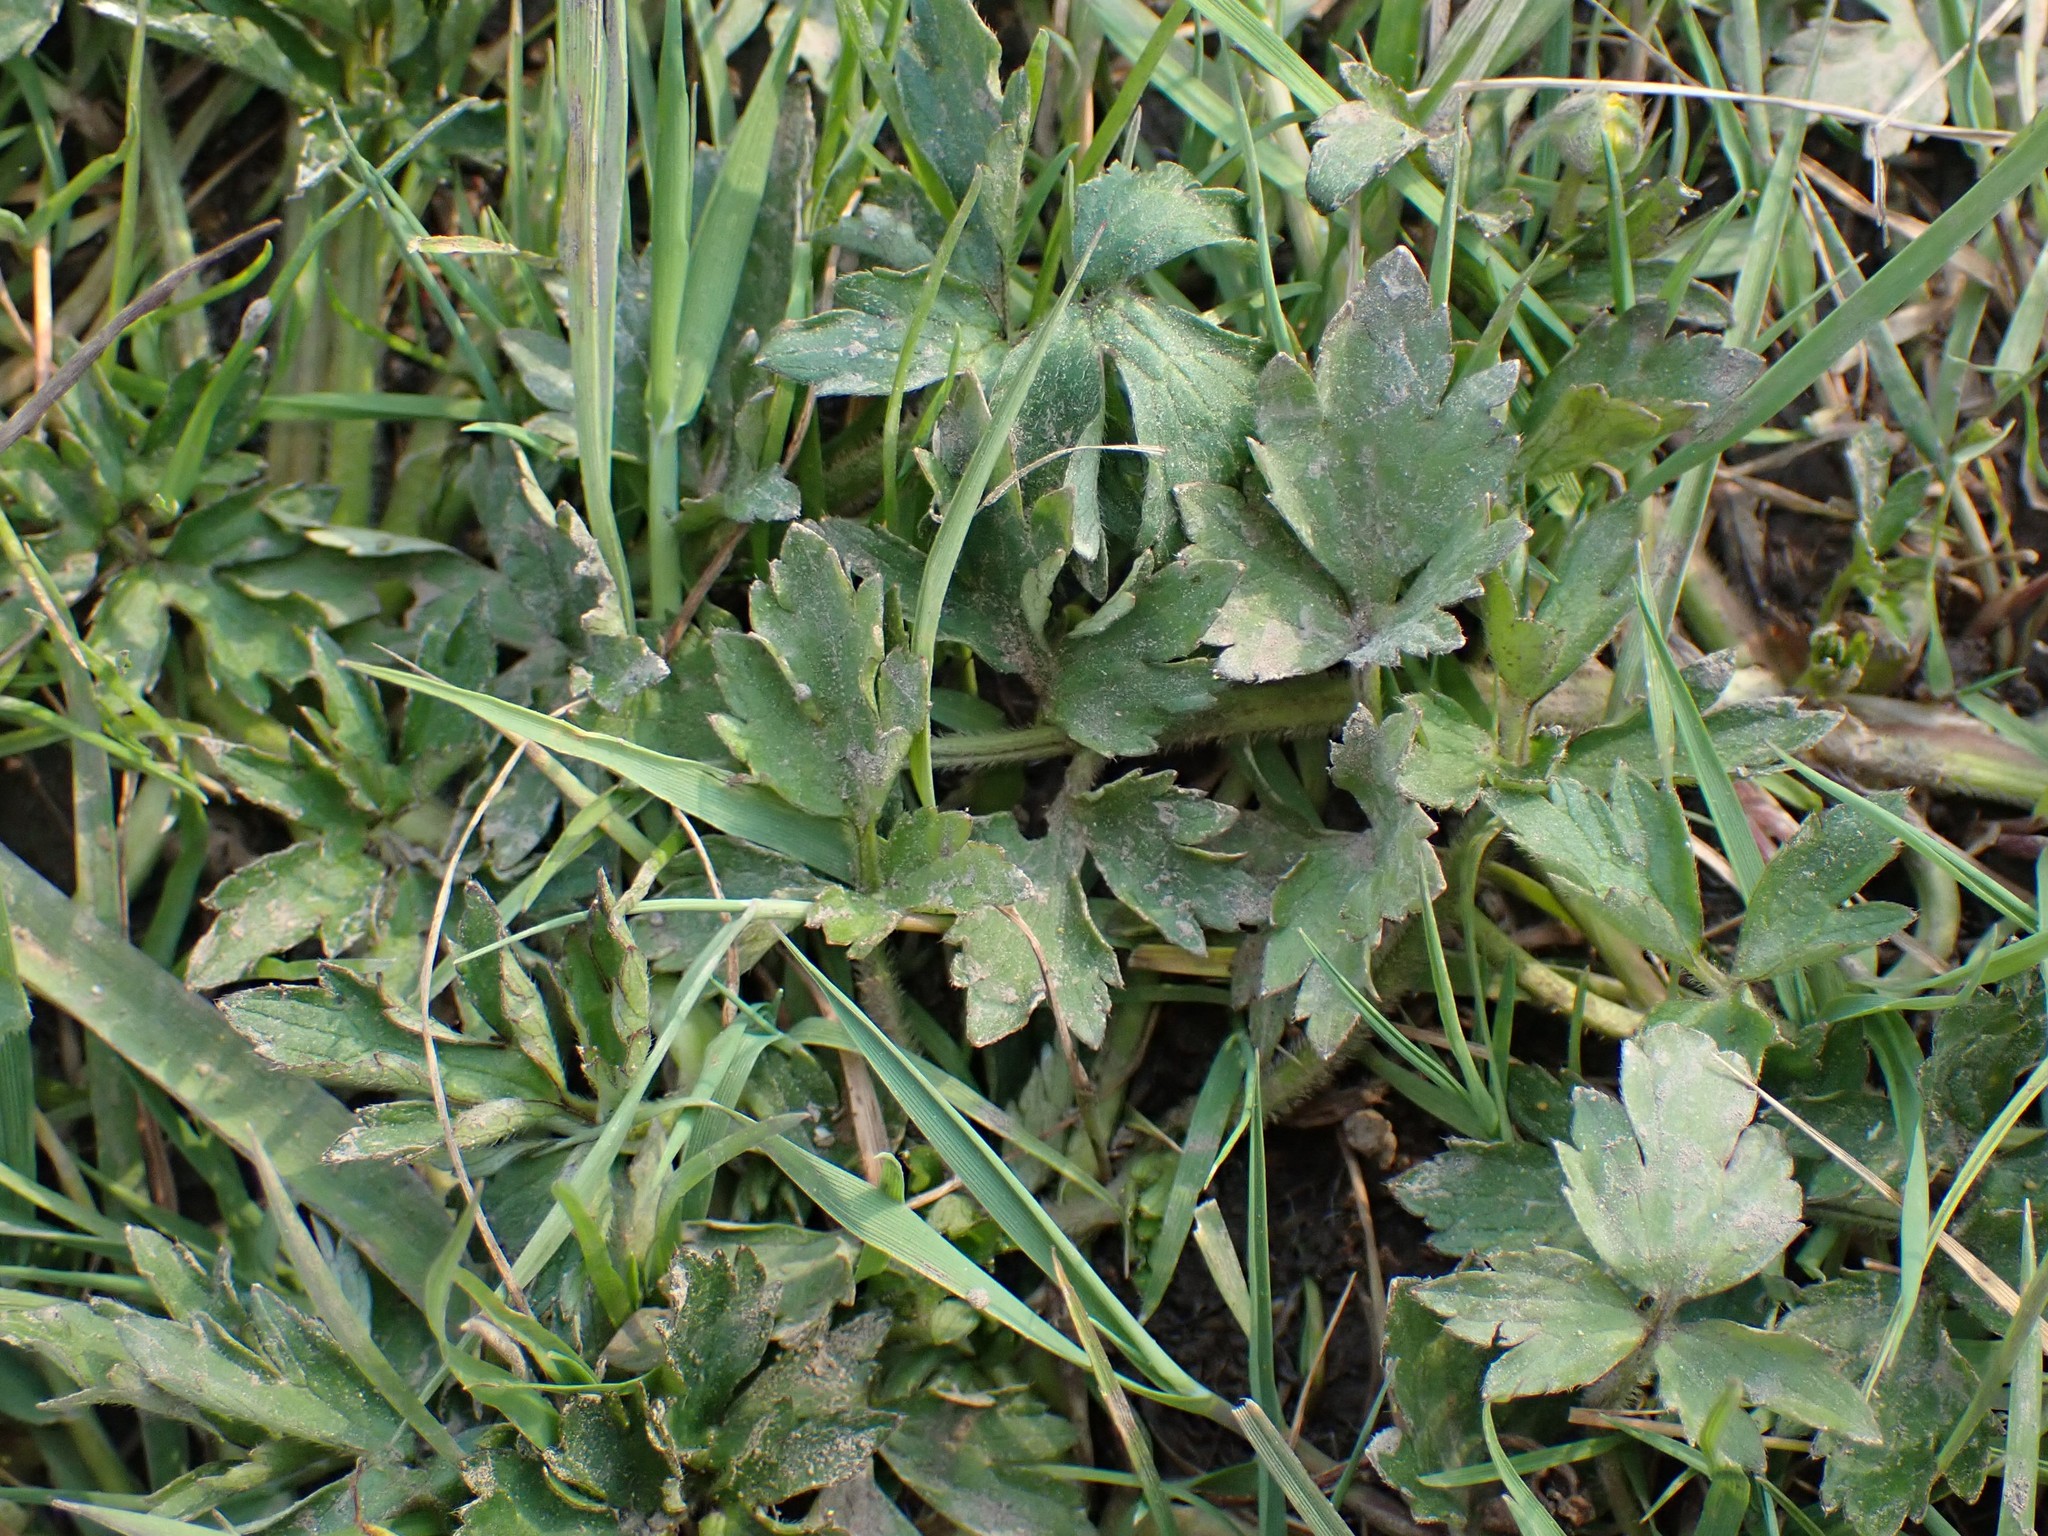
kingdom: Plantae
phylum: Tracheophyta
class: Magnoliopsida
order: Ranunculales
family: Ranunculaceae
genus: Ranunculus
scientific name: Ranunculus repens
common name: Creeping buttercup
